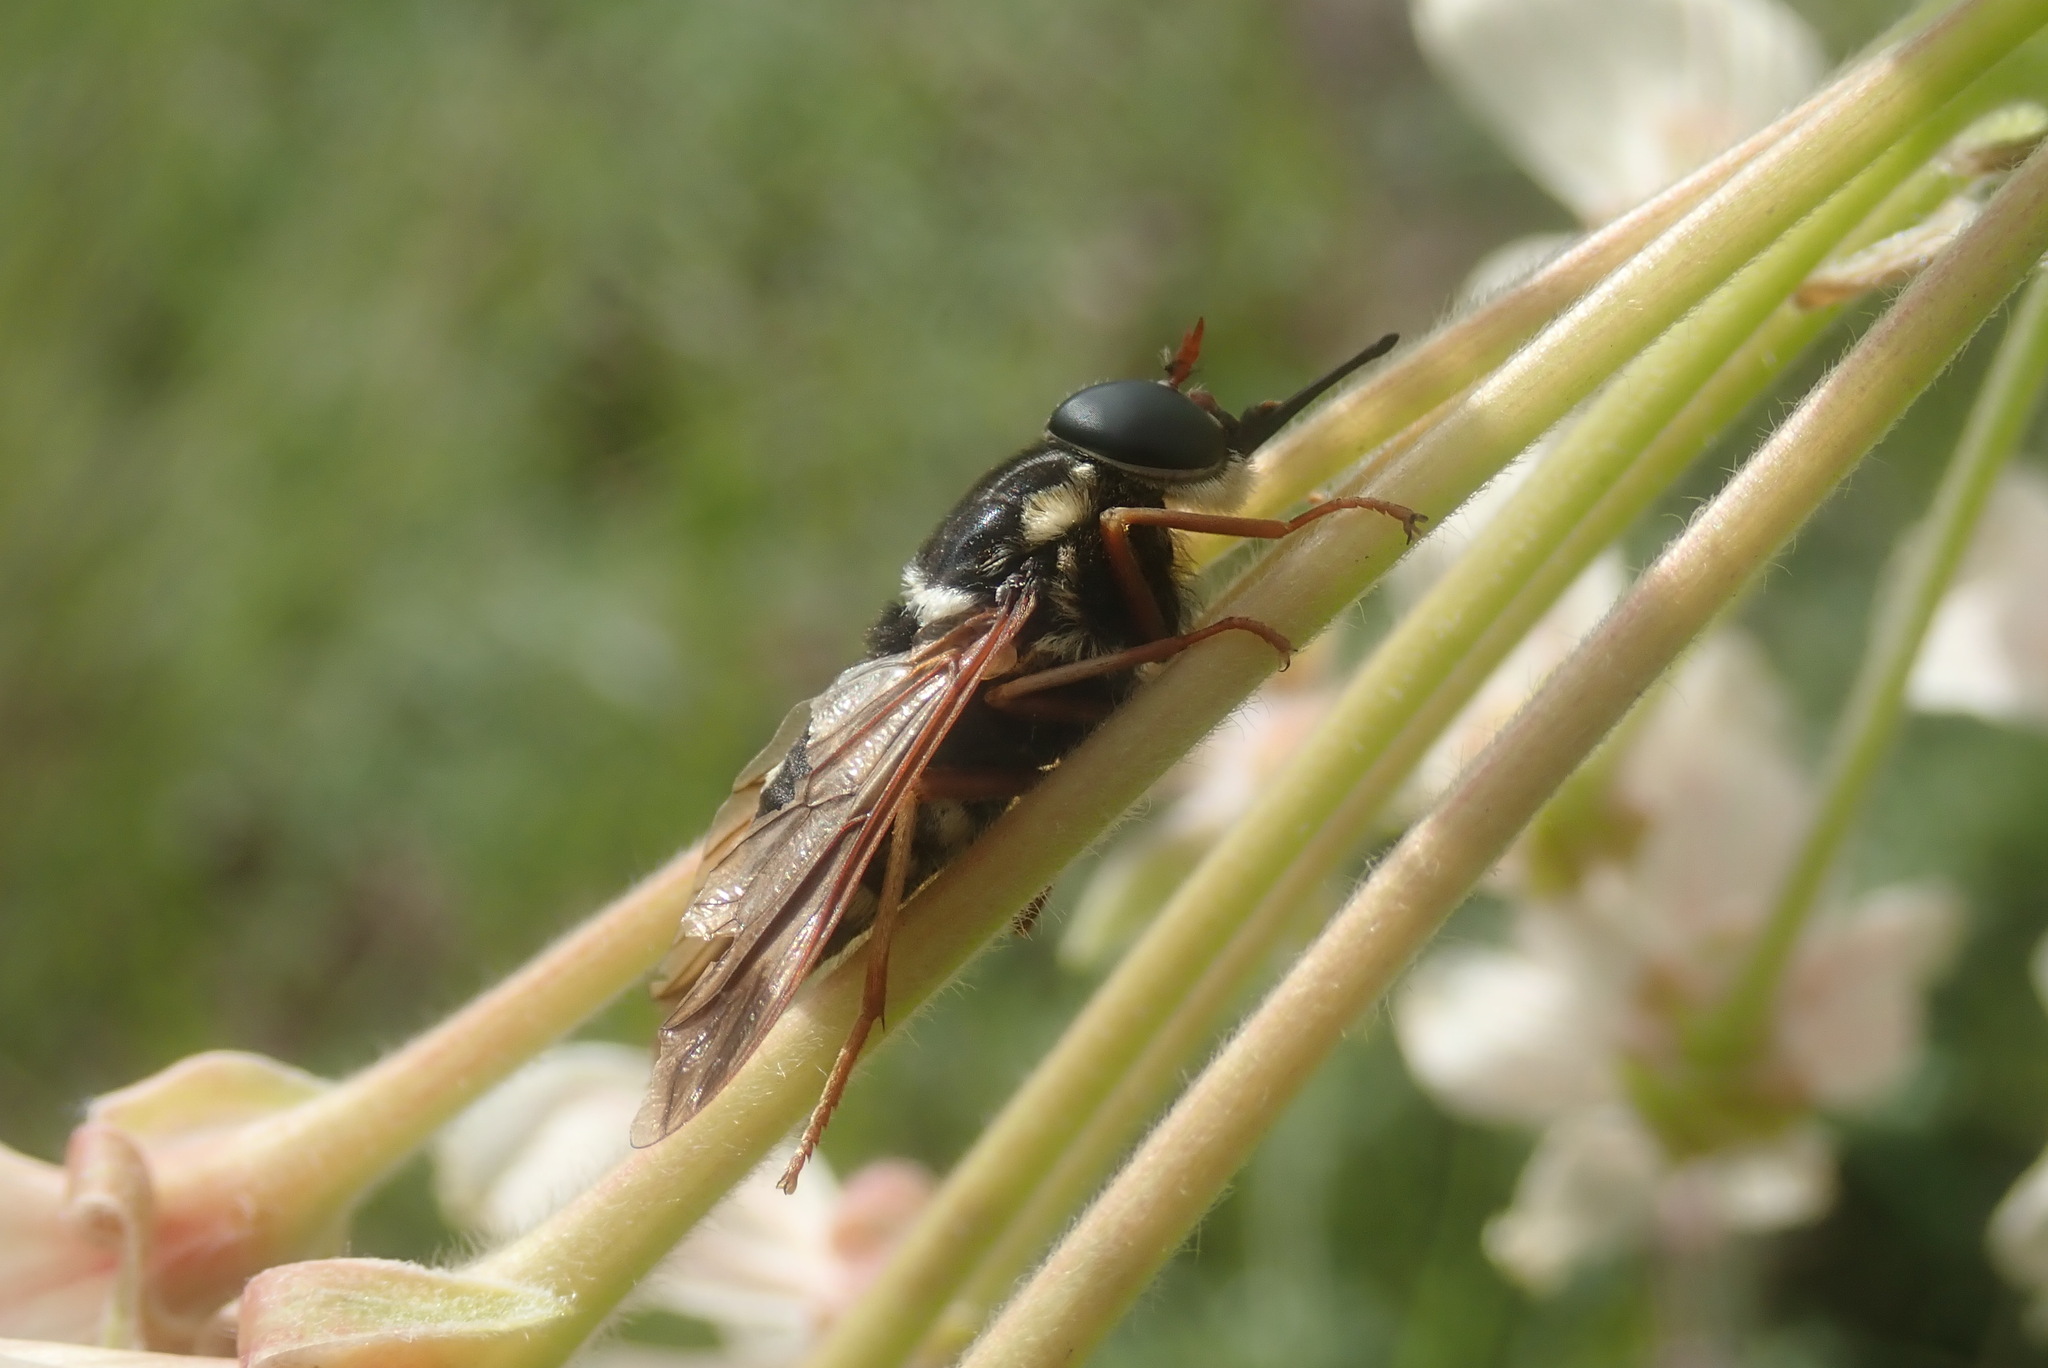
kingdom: Animalia
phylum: Arthropoda
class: Insecta
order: Diptera
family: Tabanidae
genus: Philoliche
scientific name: Philoliche bivirgulata
